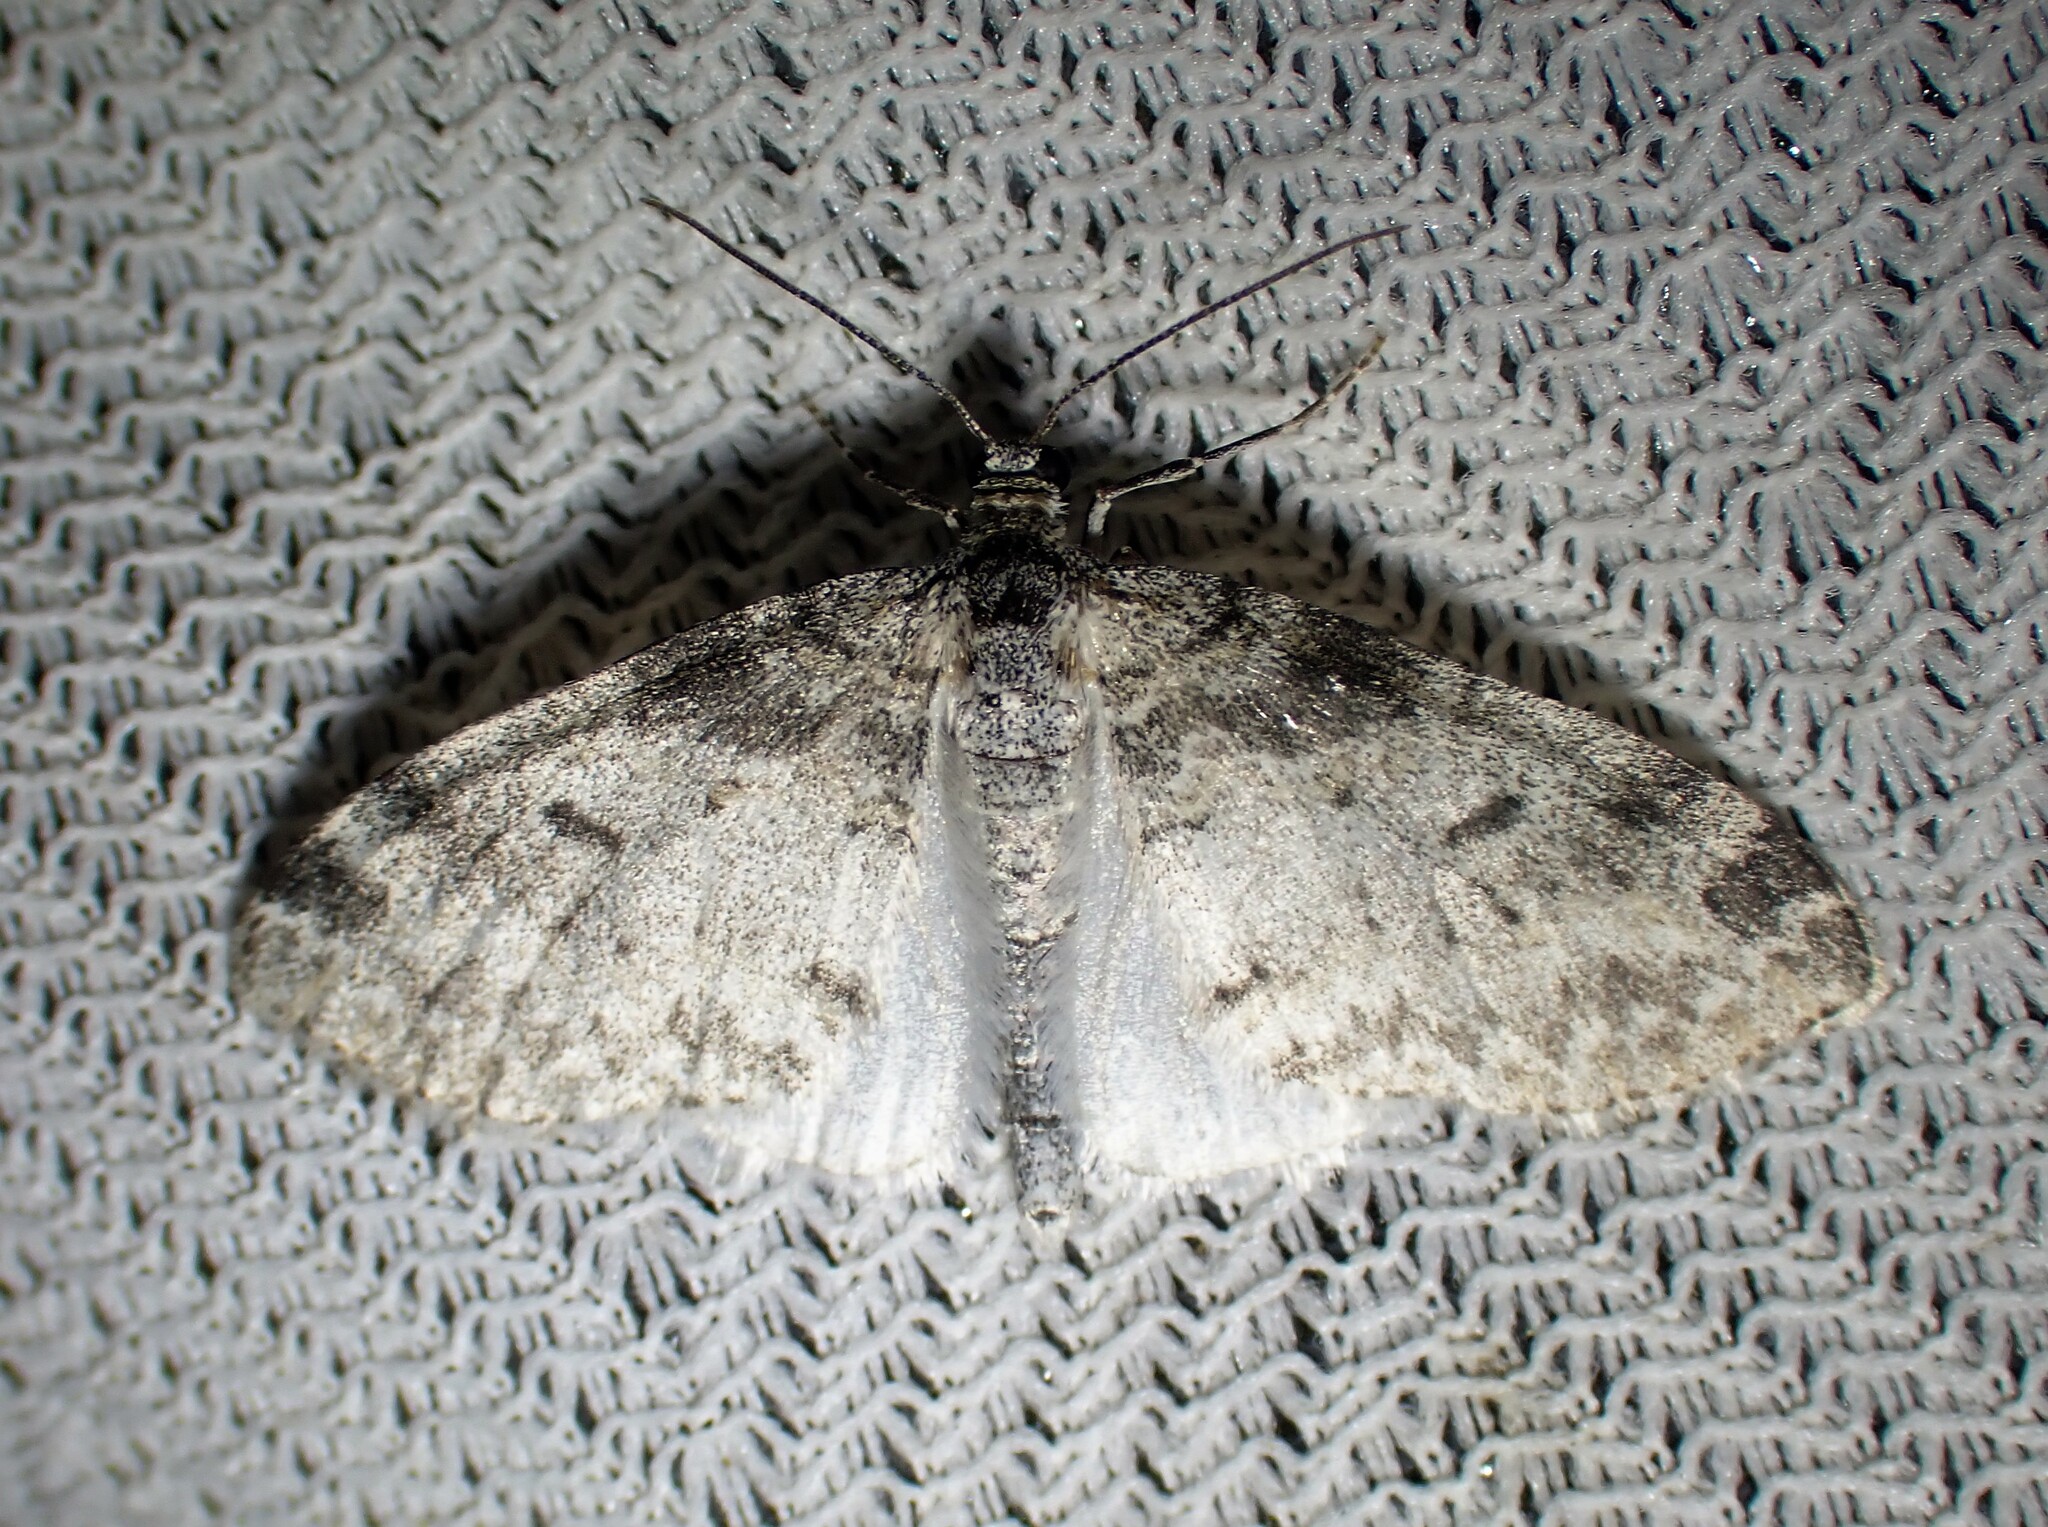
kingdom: Animalia
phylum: Arthropoda
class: Insecta
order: Lepidoptera
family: Geometridae
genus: Lobophora
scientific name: Lobophora nivigerata
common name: Powdered bigwing
